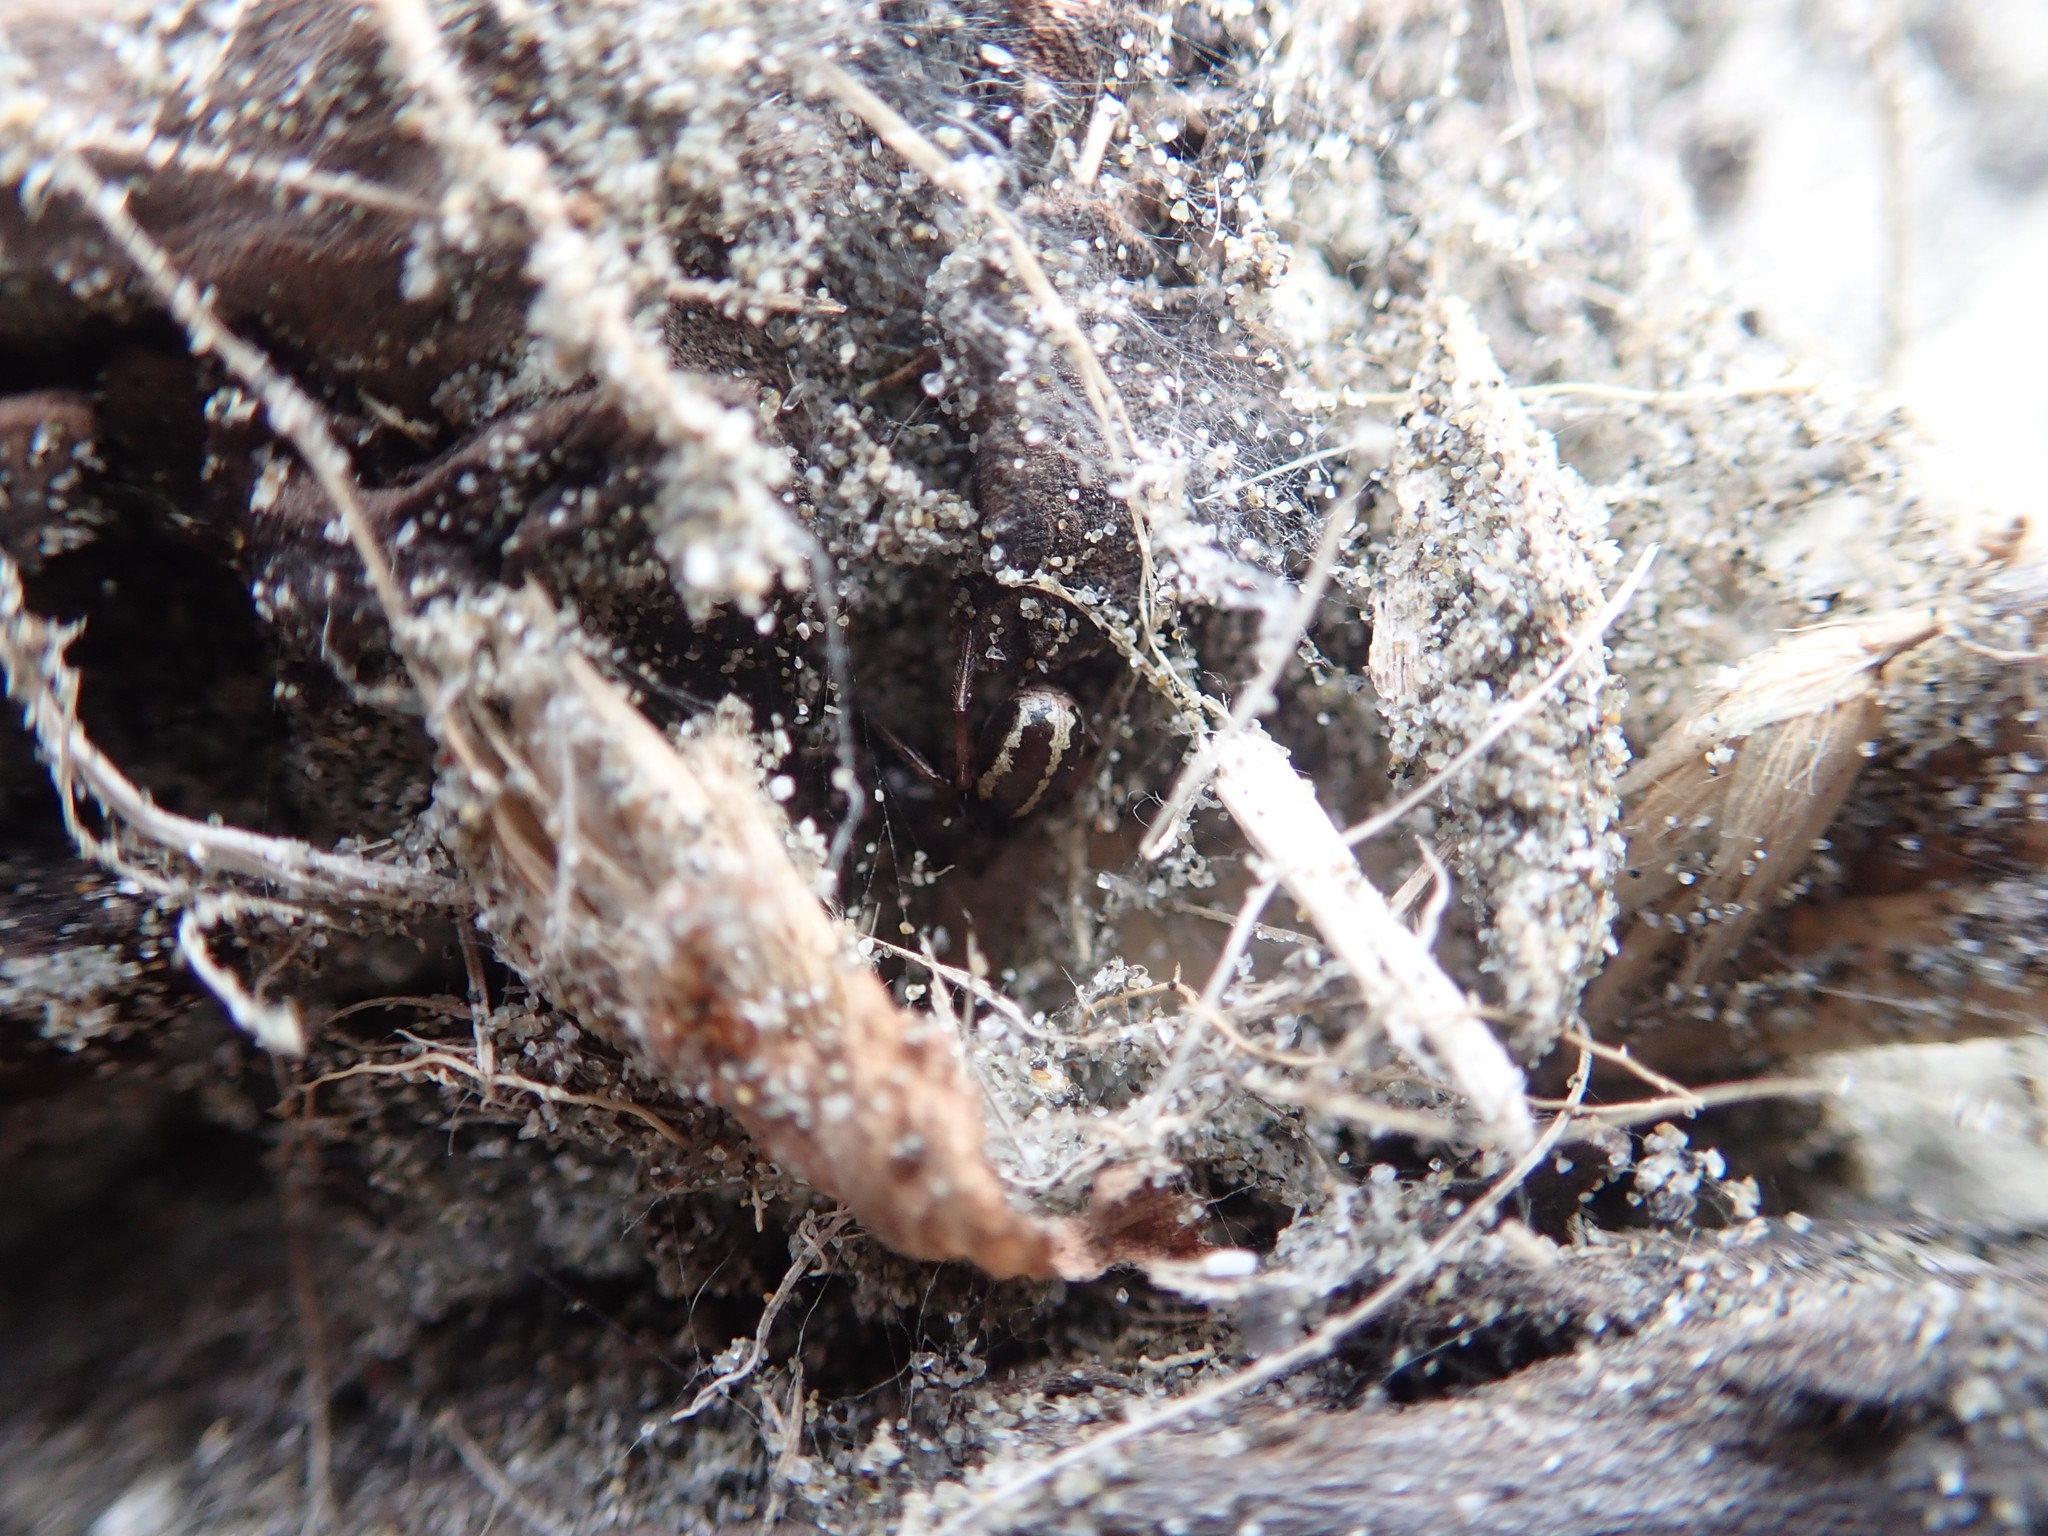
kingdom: Animalia
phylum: Arthropoda
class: Arachnida
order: Araneae
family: Theridiidae
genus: Steatoda
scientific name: Steatoda lepida
